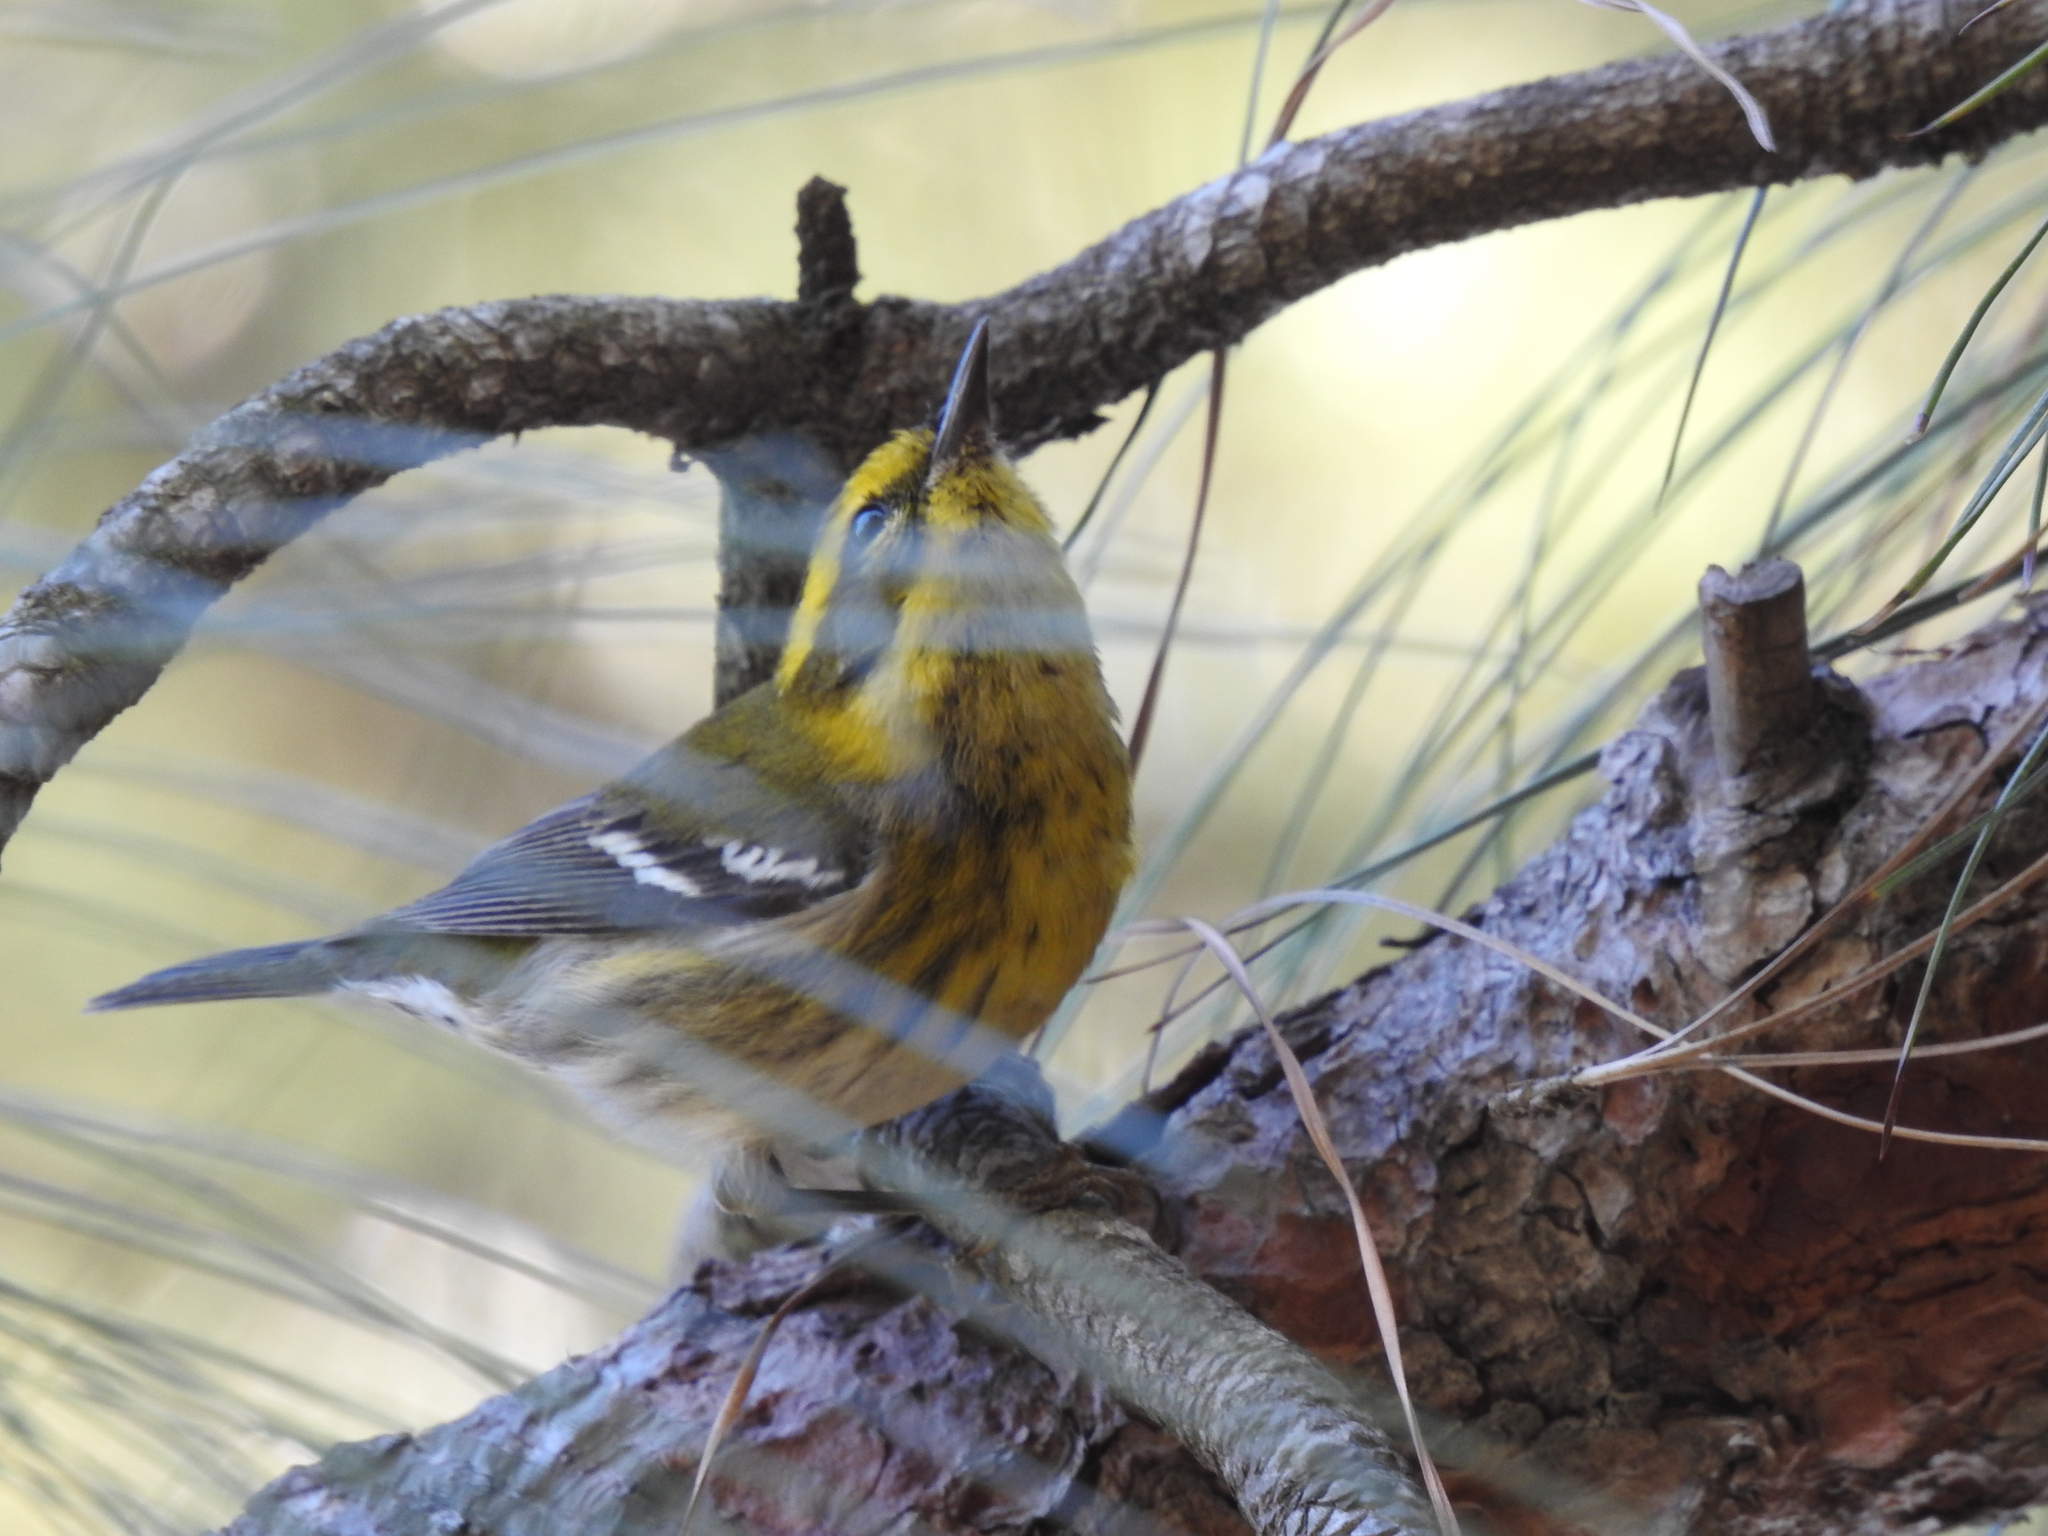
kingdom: Animalia
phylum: Chordata
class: Aves
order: Passeriformes
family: Parulidae
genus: Setophaga
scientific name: Setophaga townsendi
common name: Townsend's warbler
